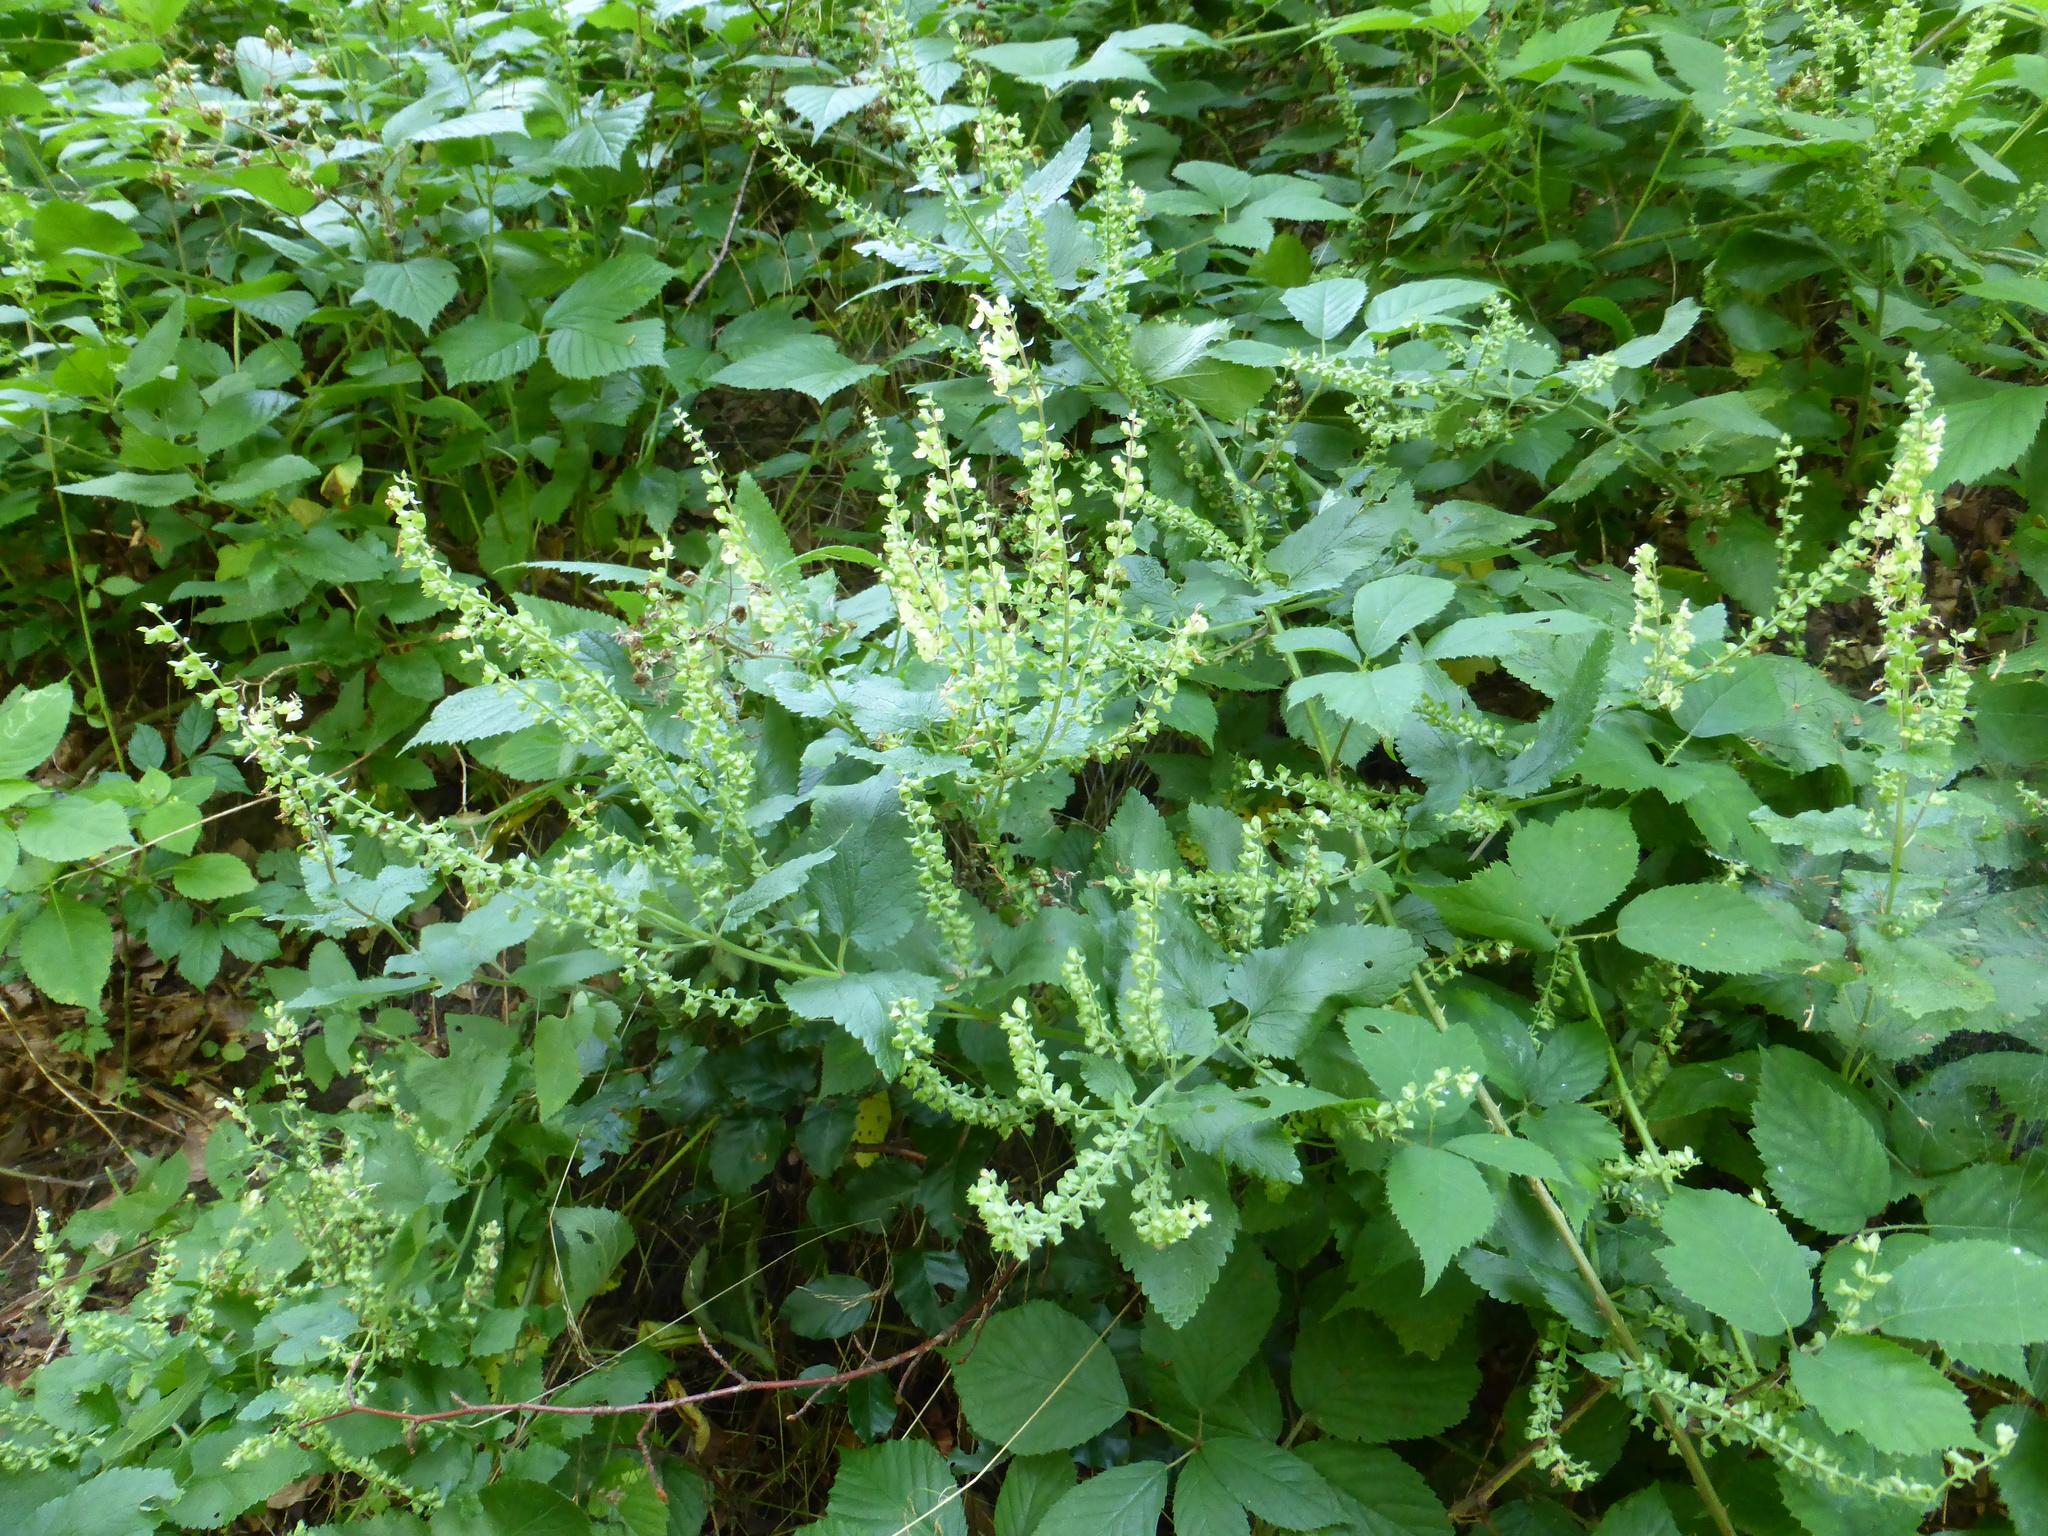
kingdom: Plantae
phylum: Tracheophyta
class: Magnoliopsida
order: Lamiales
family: Lamiaceae
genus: Teucrium
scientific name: Teucrium scorodonia
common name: Woodland germander
